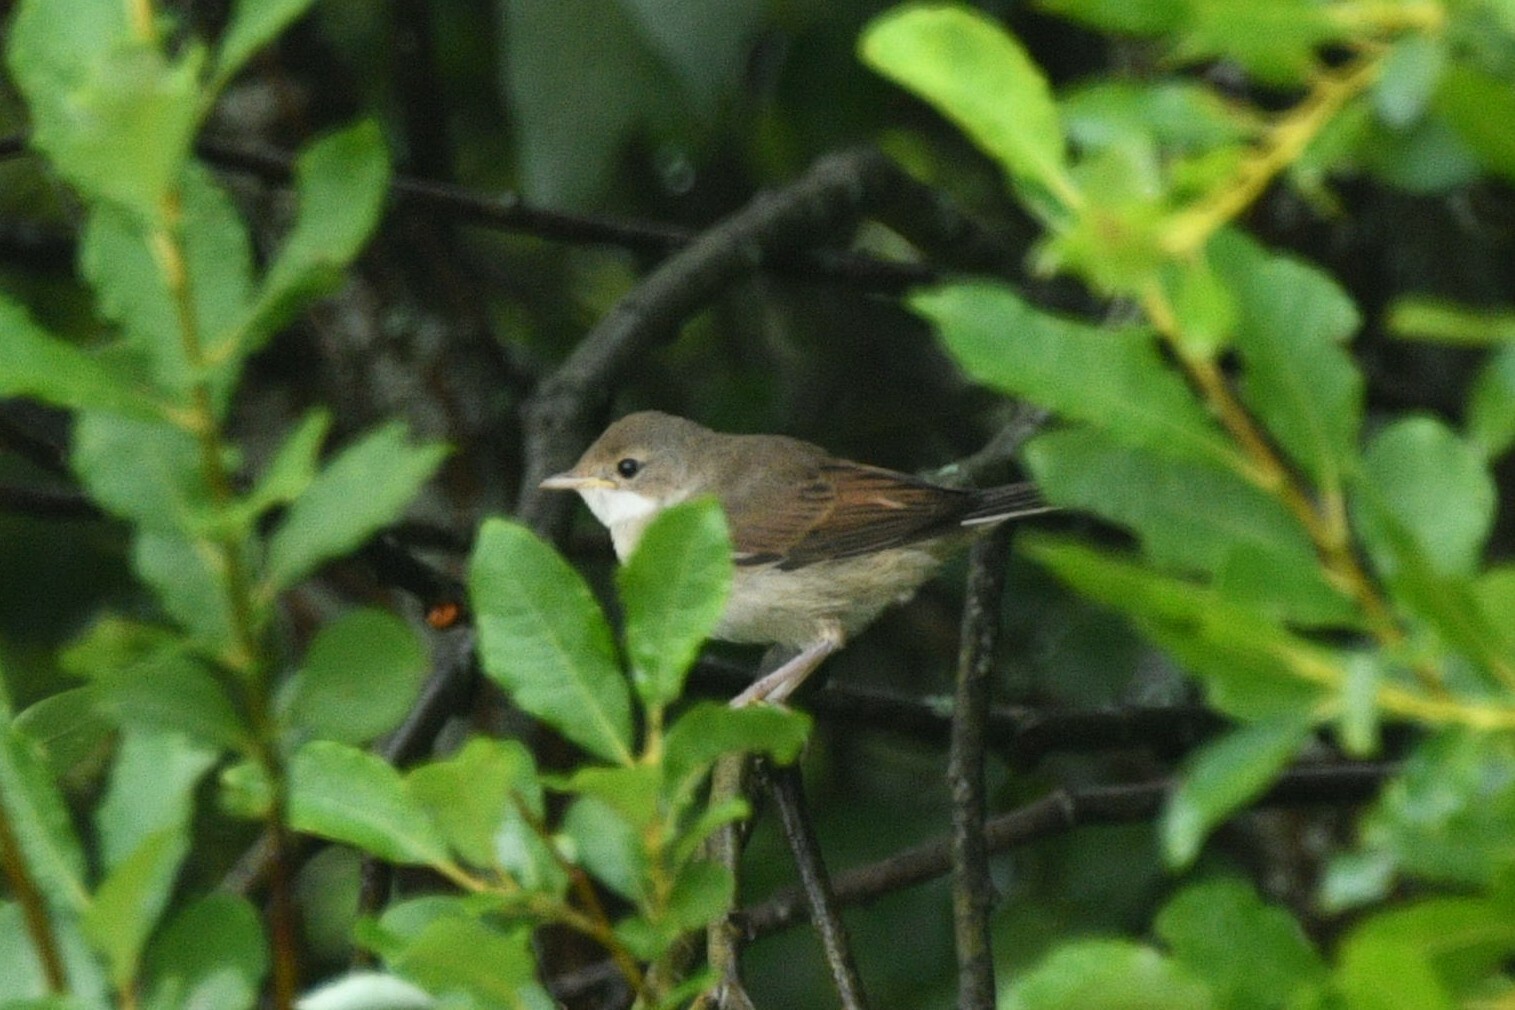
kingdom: Animalia
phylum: Chordata
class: Aves
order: Passeriformes
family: Sylviidae
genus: Sylvia
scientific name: Sylvia communis
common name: Common whitethroat
